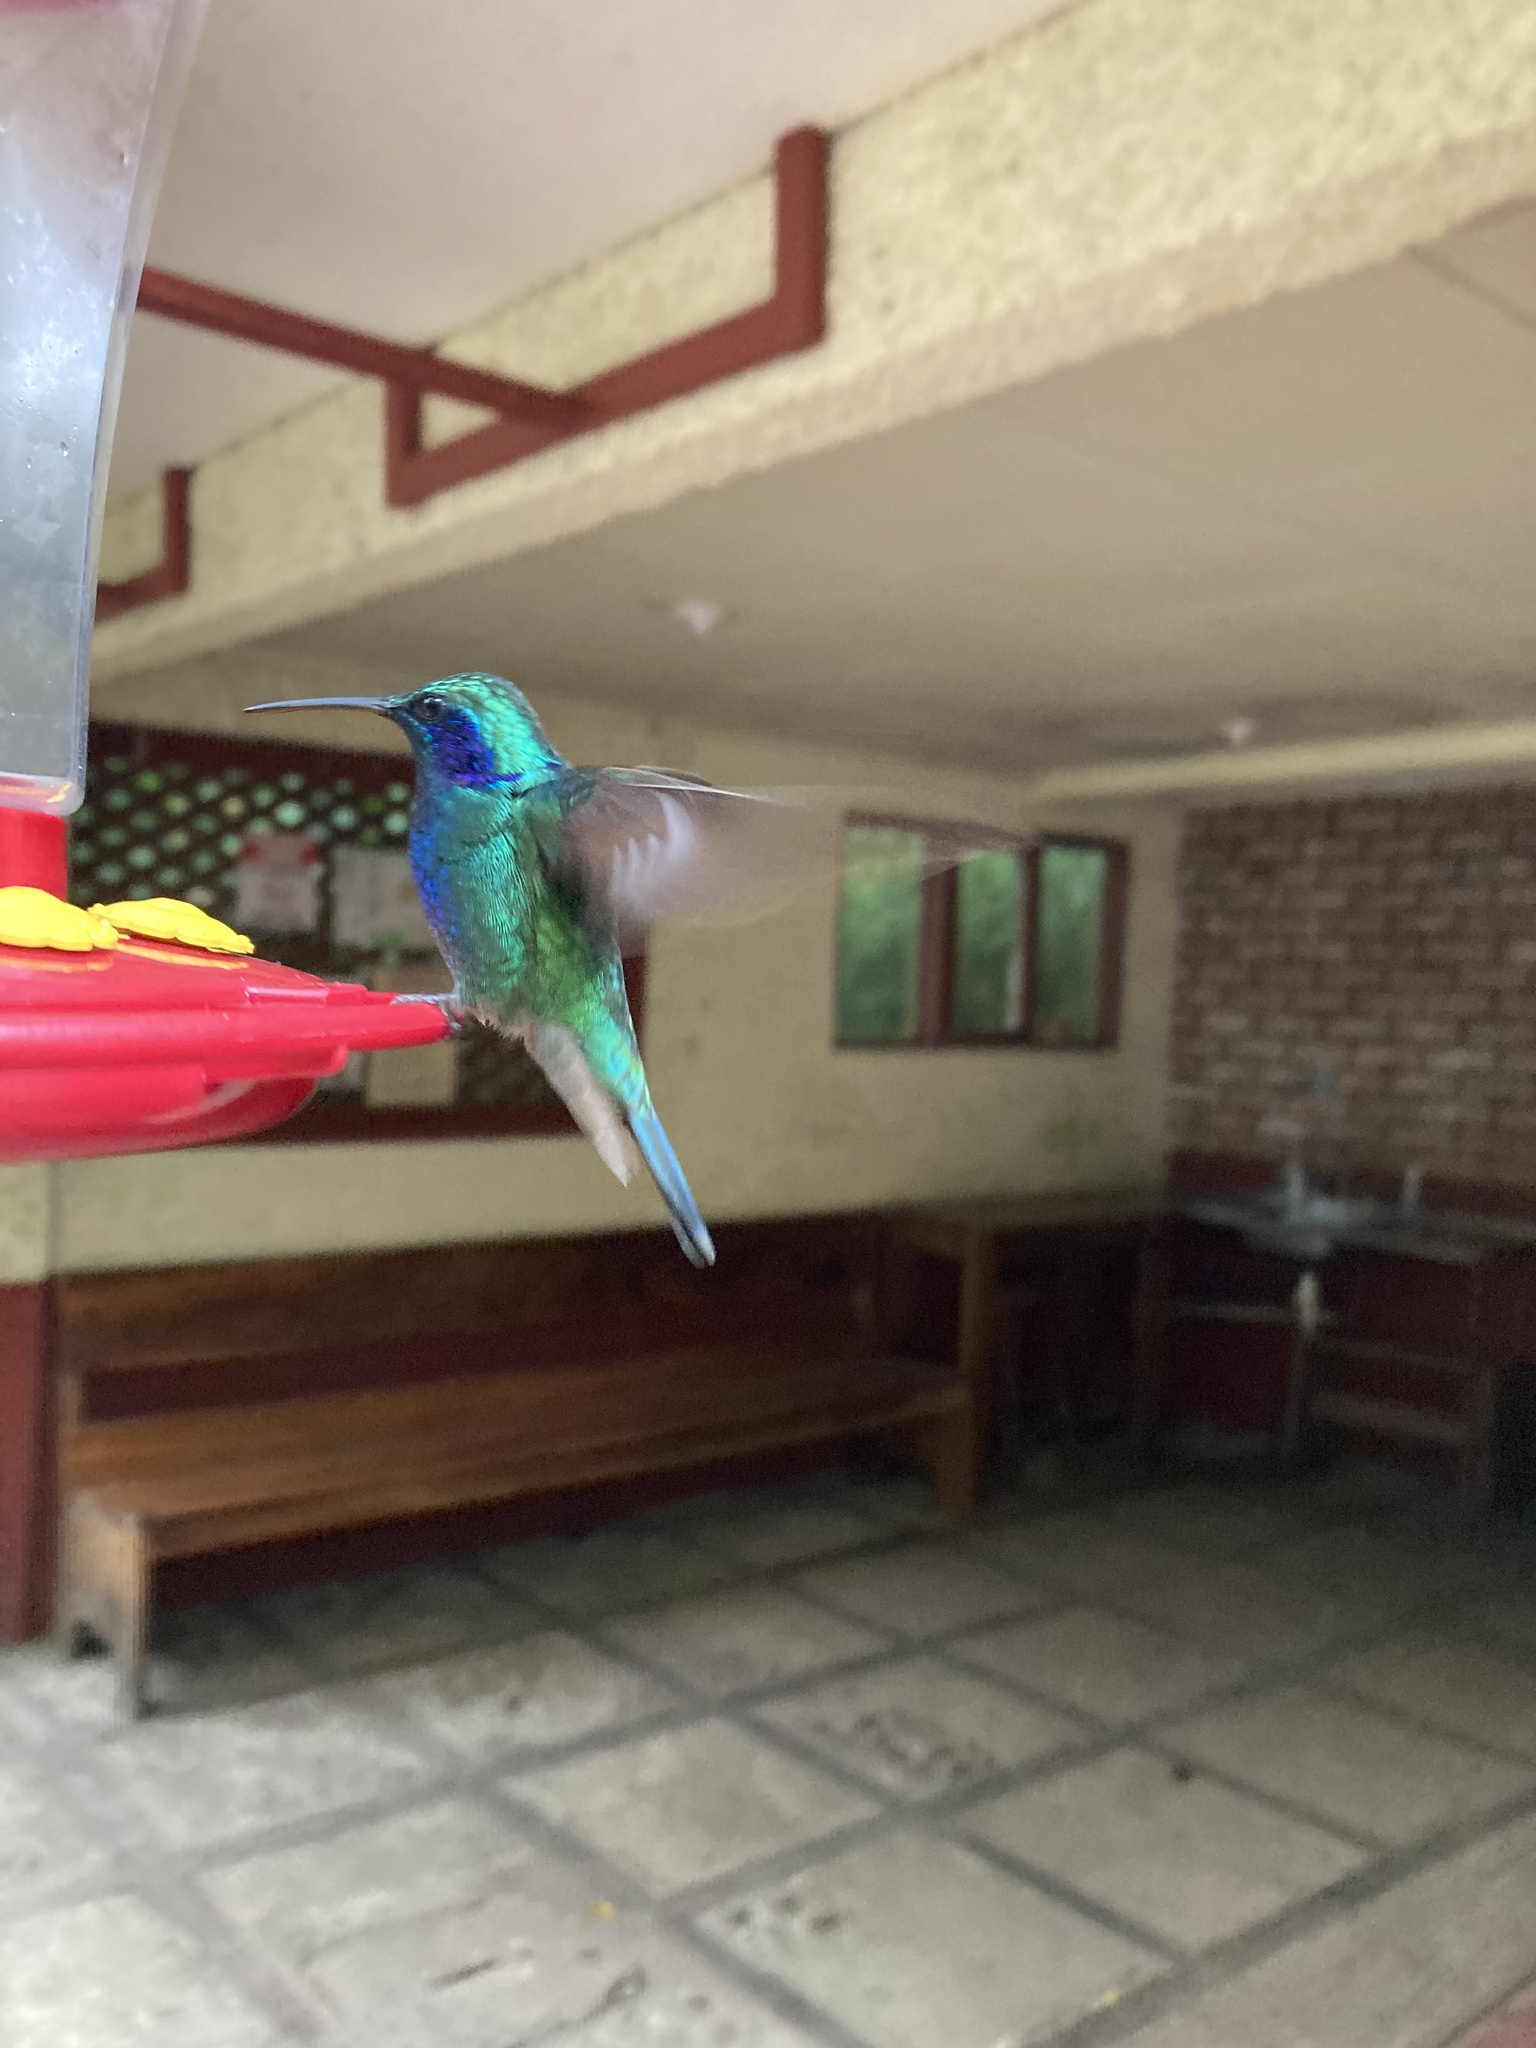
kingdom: Animalia
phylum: Chordata
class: Aves
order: Apodiformes
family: Trochilidae
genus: Colibri
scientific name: Colibri cyanotus
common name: Lesser violetear
